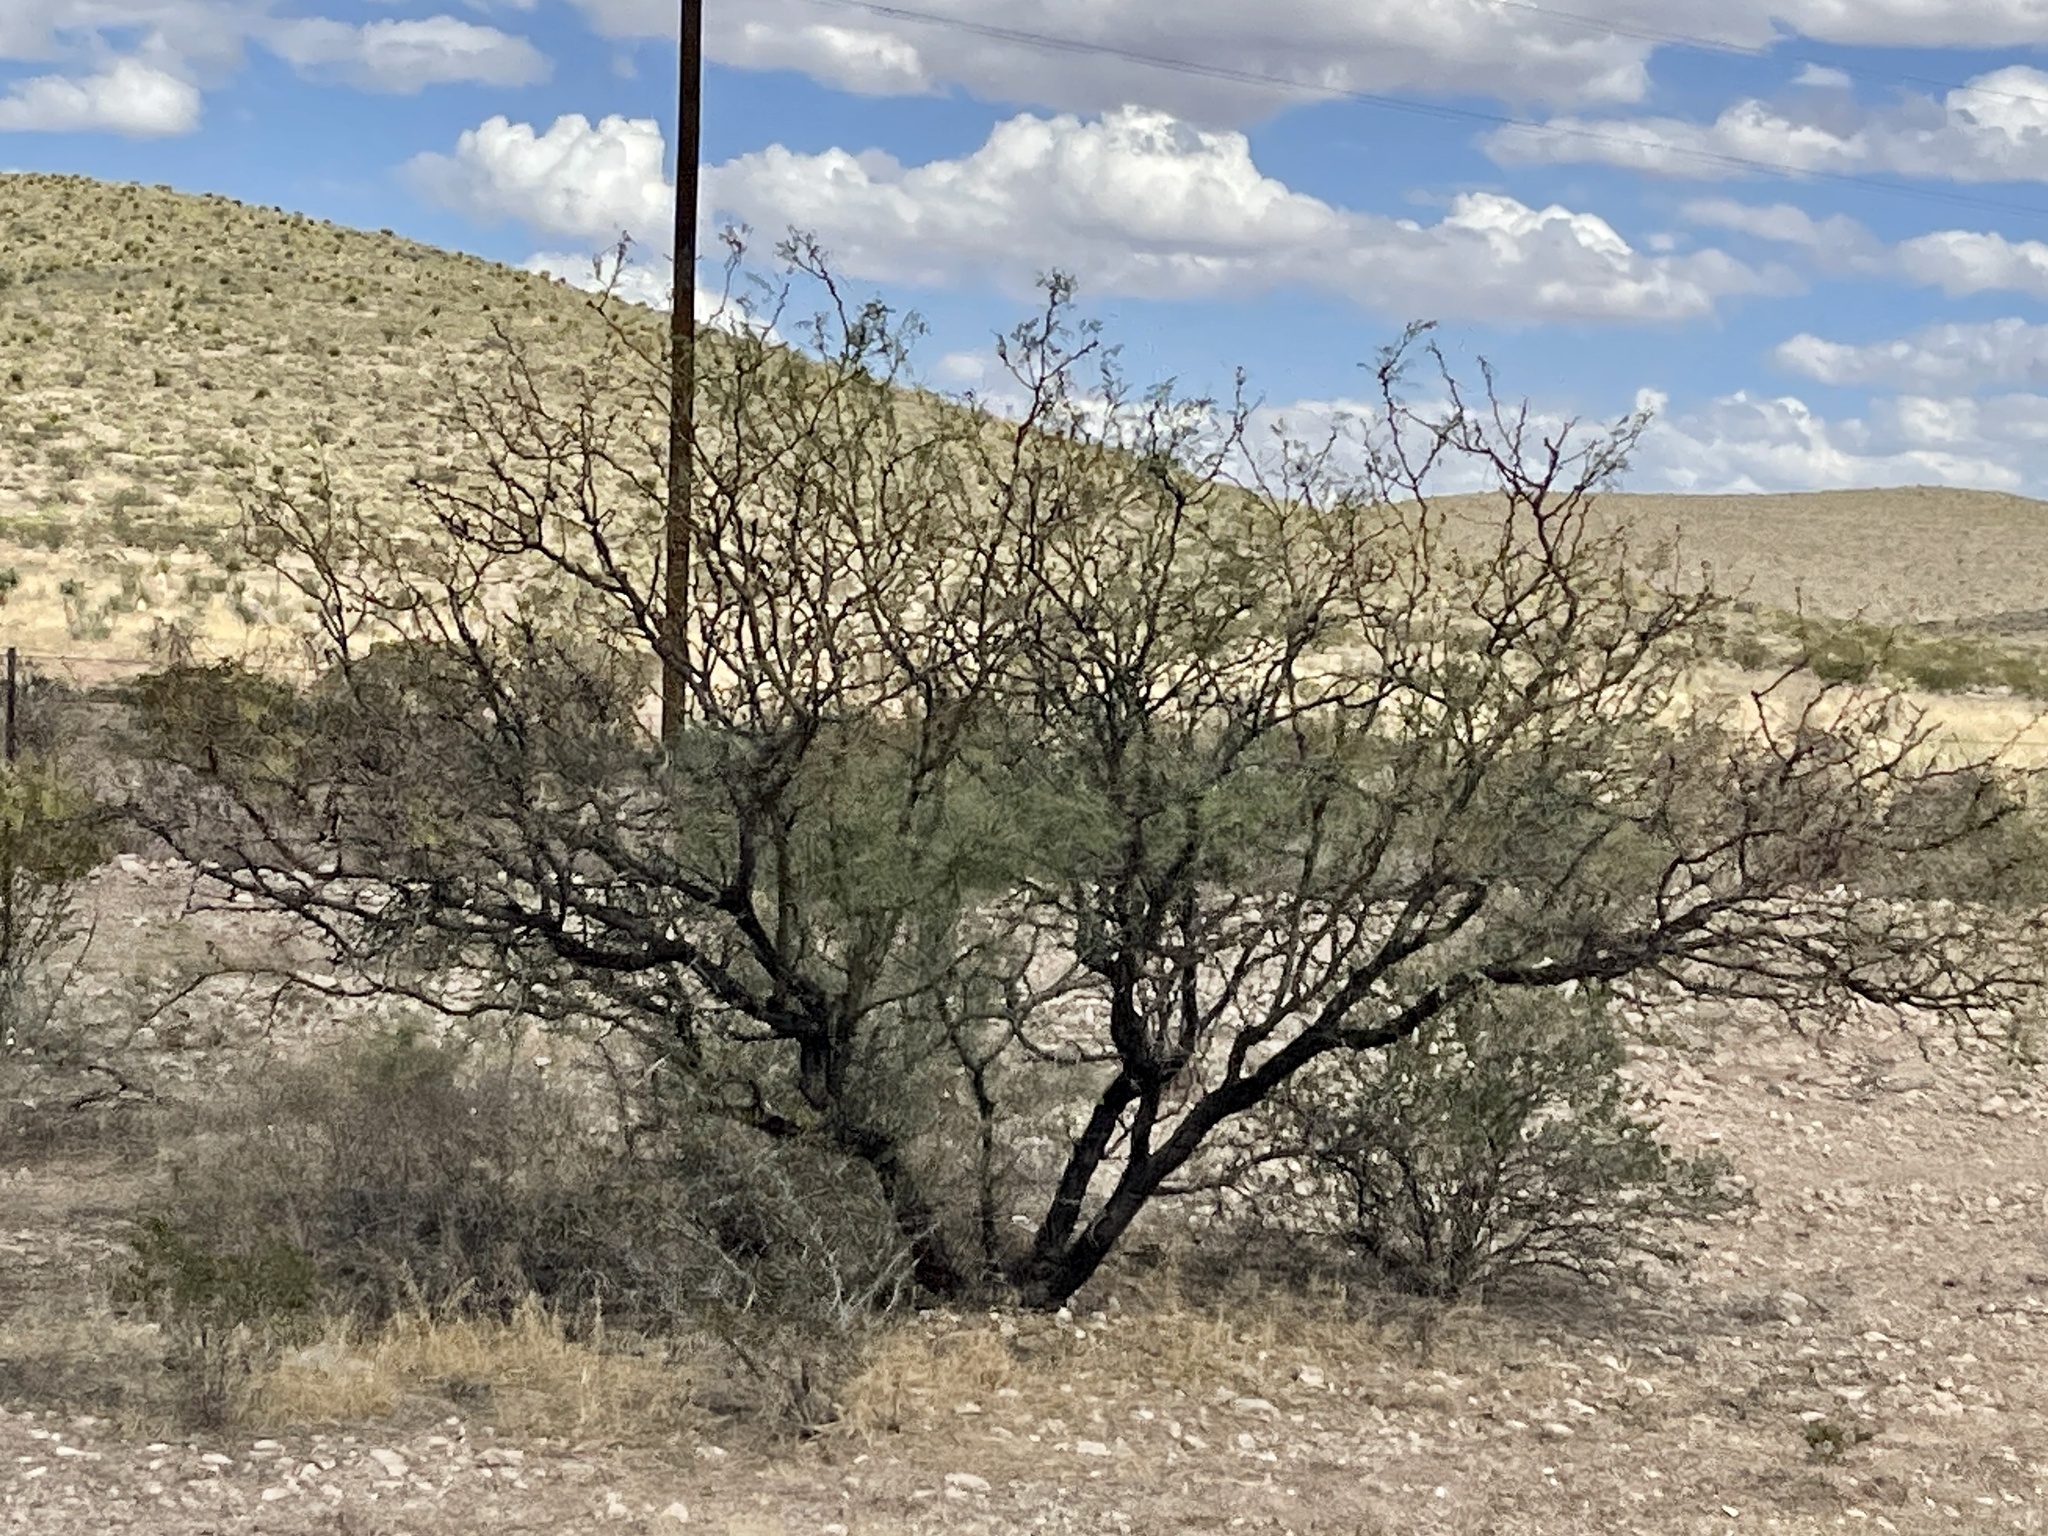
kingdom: Plantae
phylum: Tracheophyta
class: Magnoliopsida
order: Fabales
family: Fabaceae
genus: Prosopis
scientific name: Prosopis glandulosa
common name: Honey mesquite
